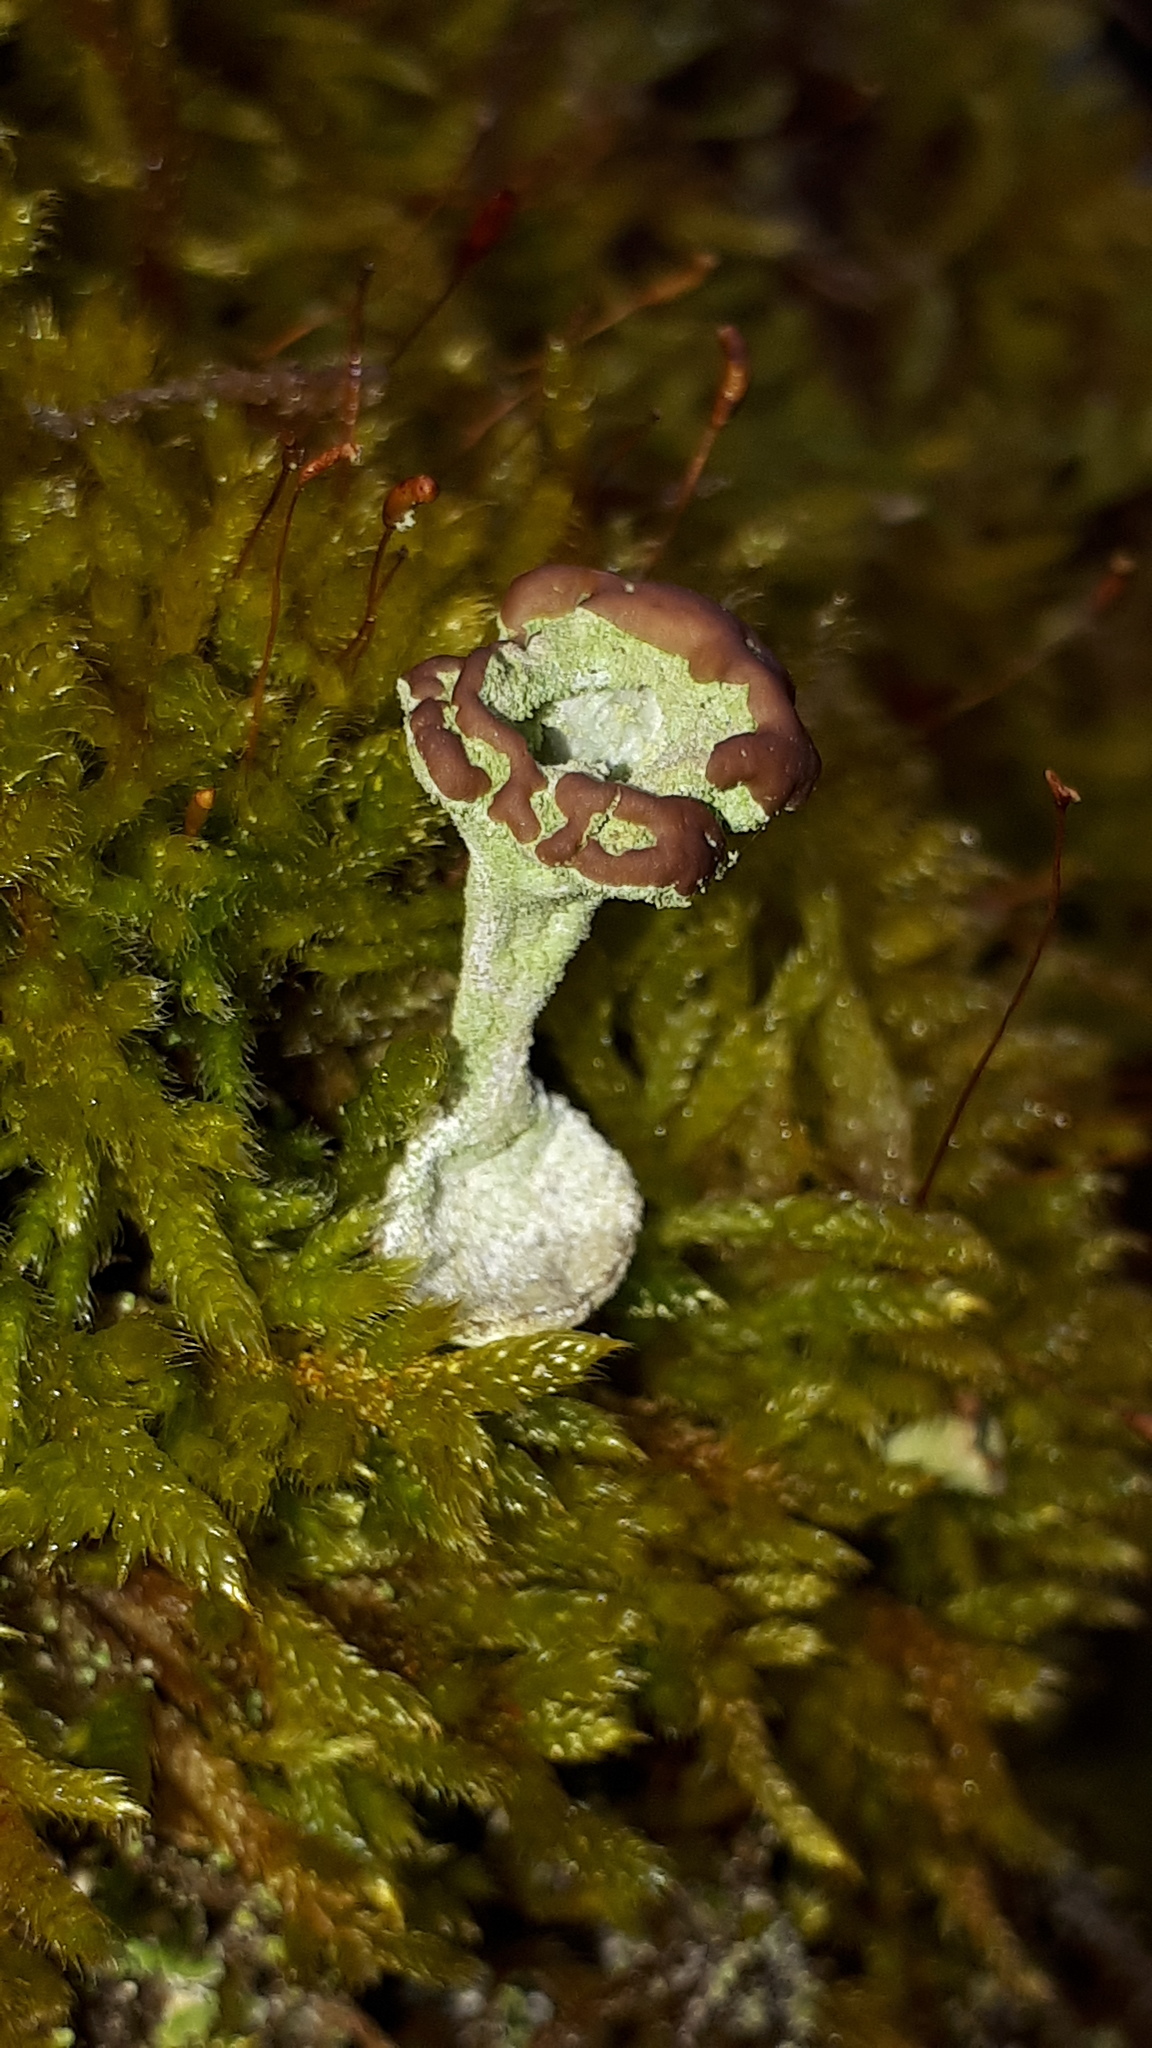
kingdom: Fungi
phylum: Ascomycota
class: Lecanoromycetes
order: Lecanorales
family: Cladoniaceae
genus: Cladonia
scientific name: Cladonia fimbriata
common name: Powdered trumpet lichen
